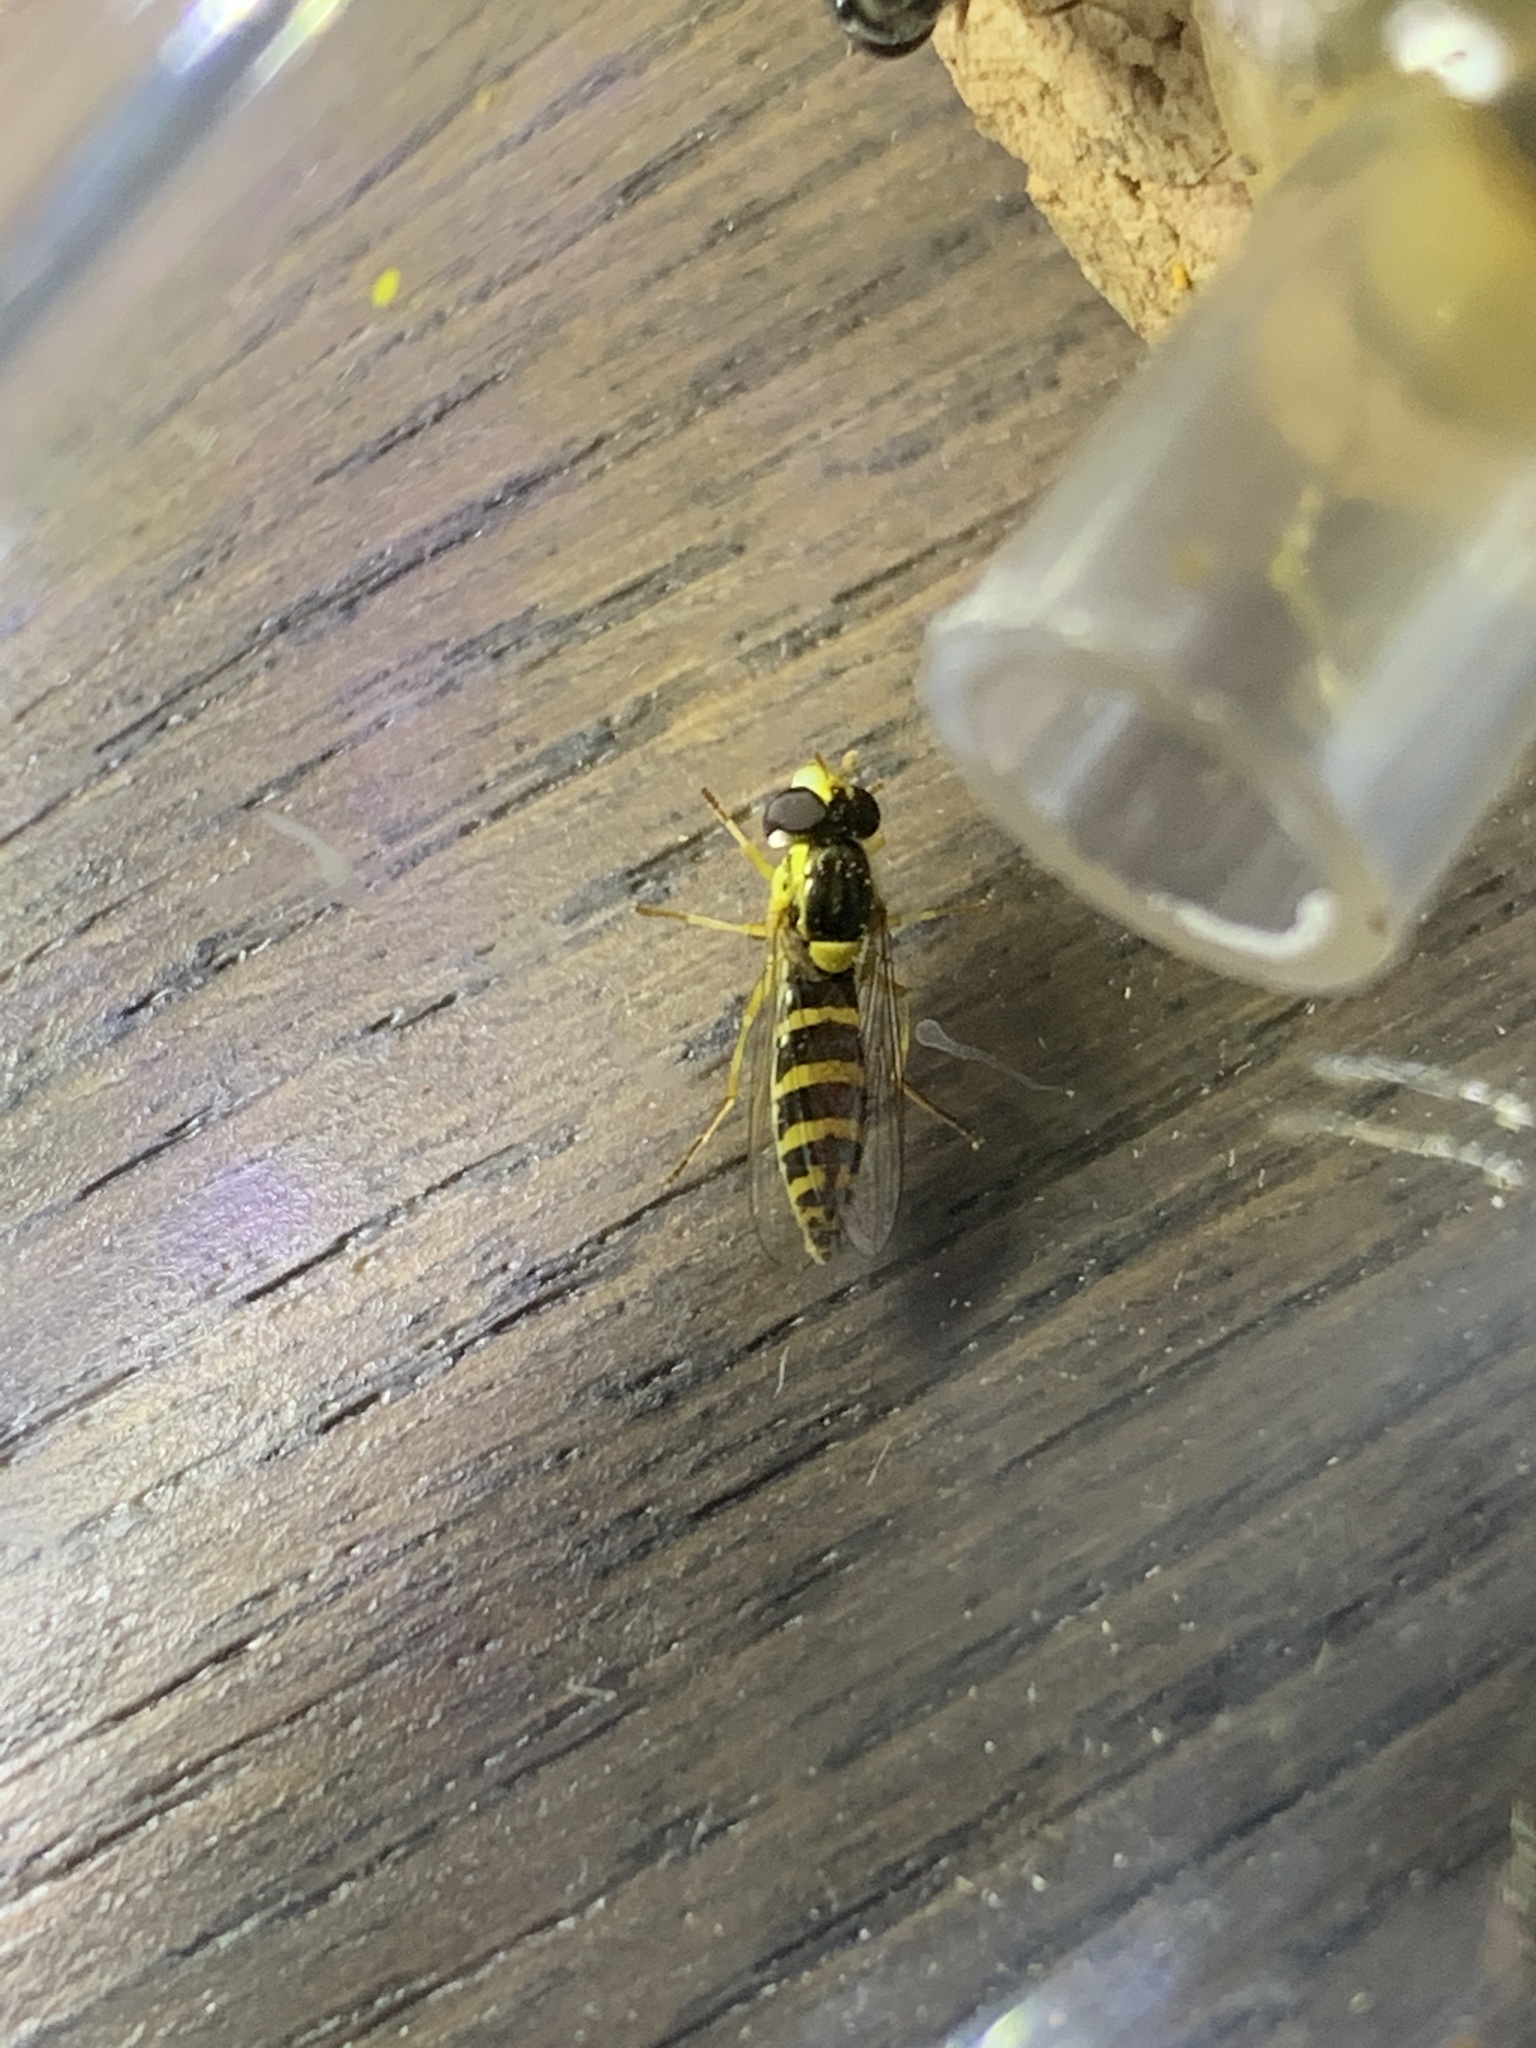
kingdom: Animalia
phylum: Arthropoda
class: Insecta
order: Diptera
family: Syrphidae
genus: Sphaerophoria
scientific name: Sphaerophoria
